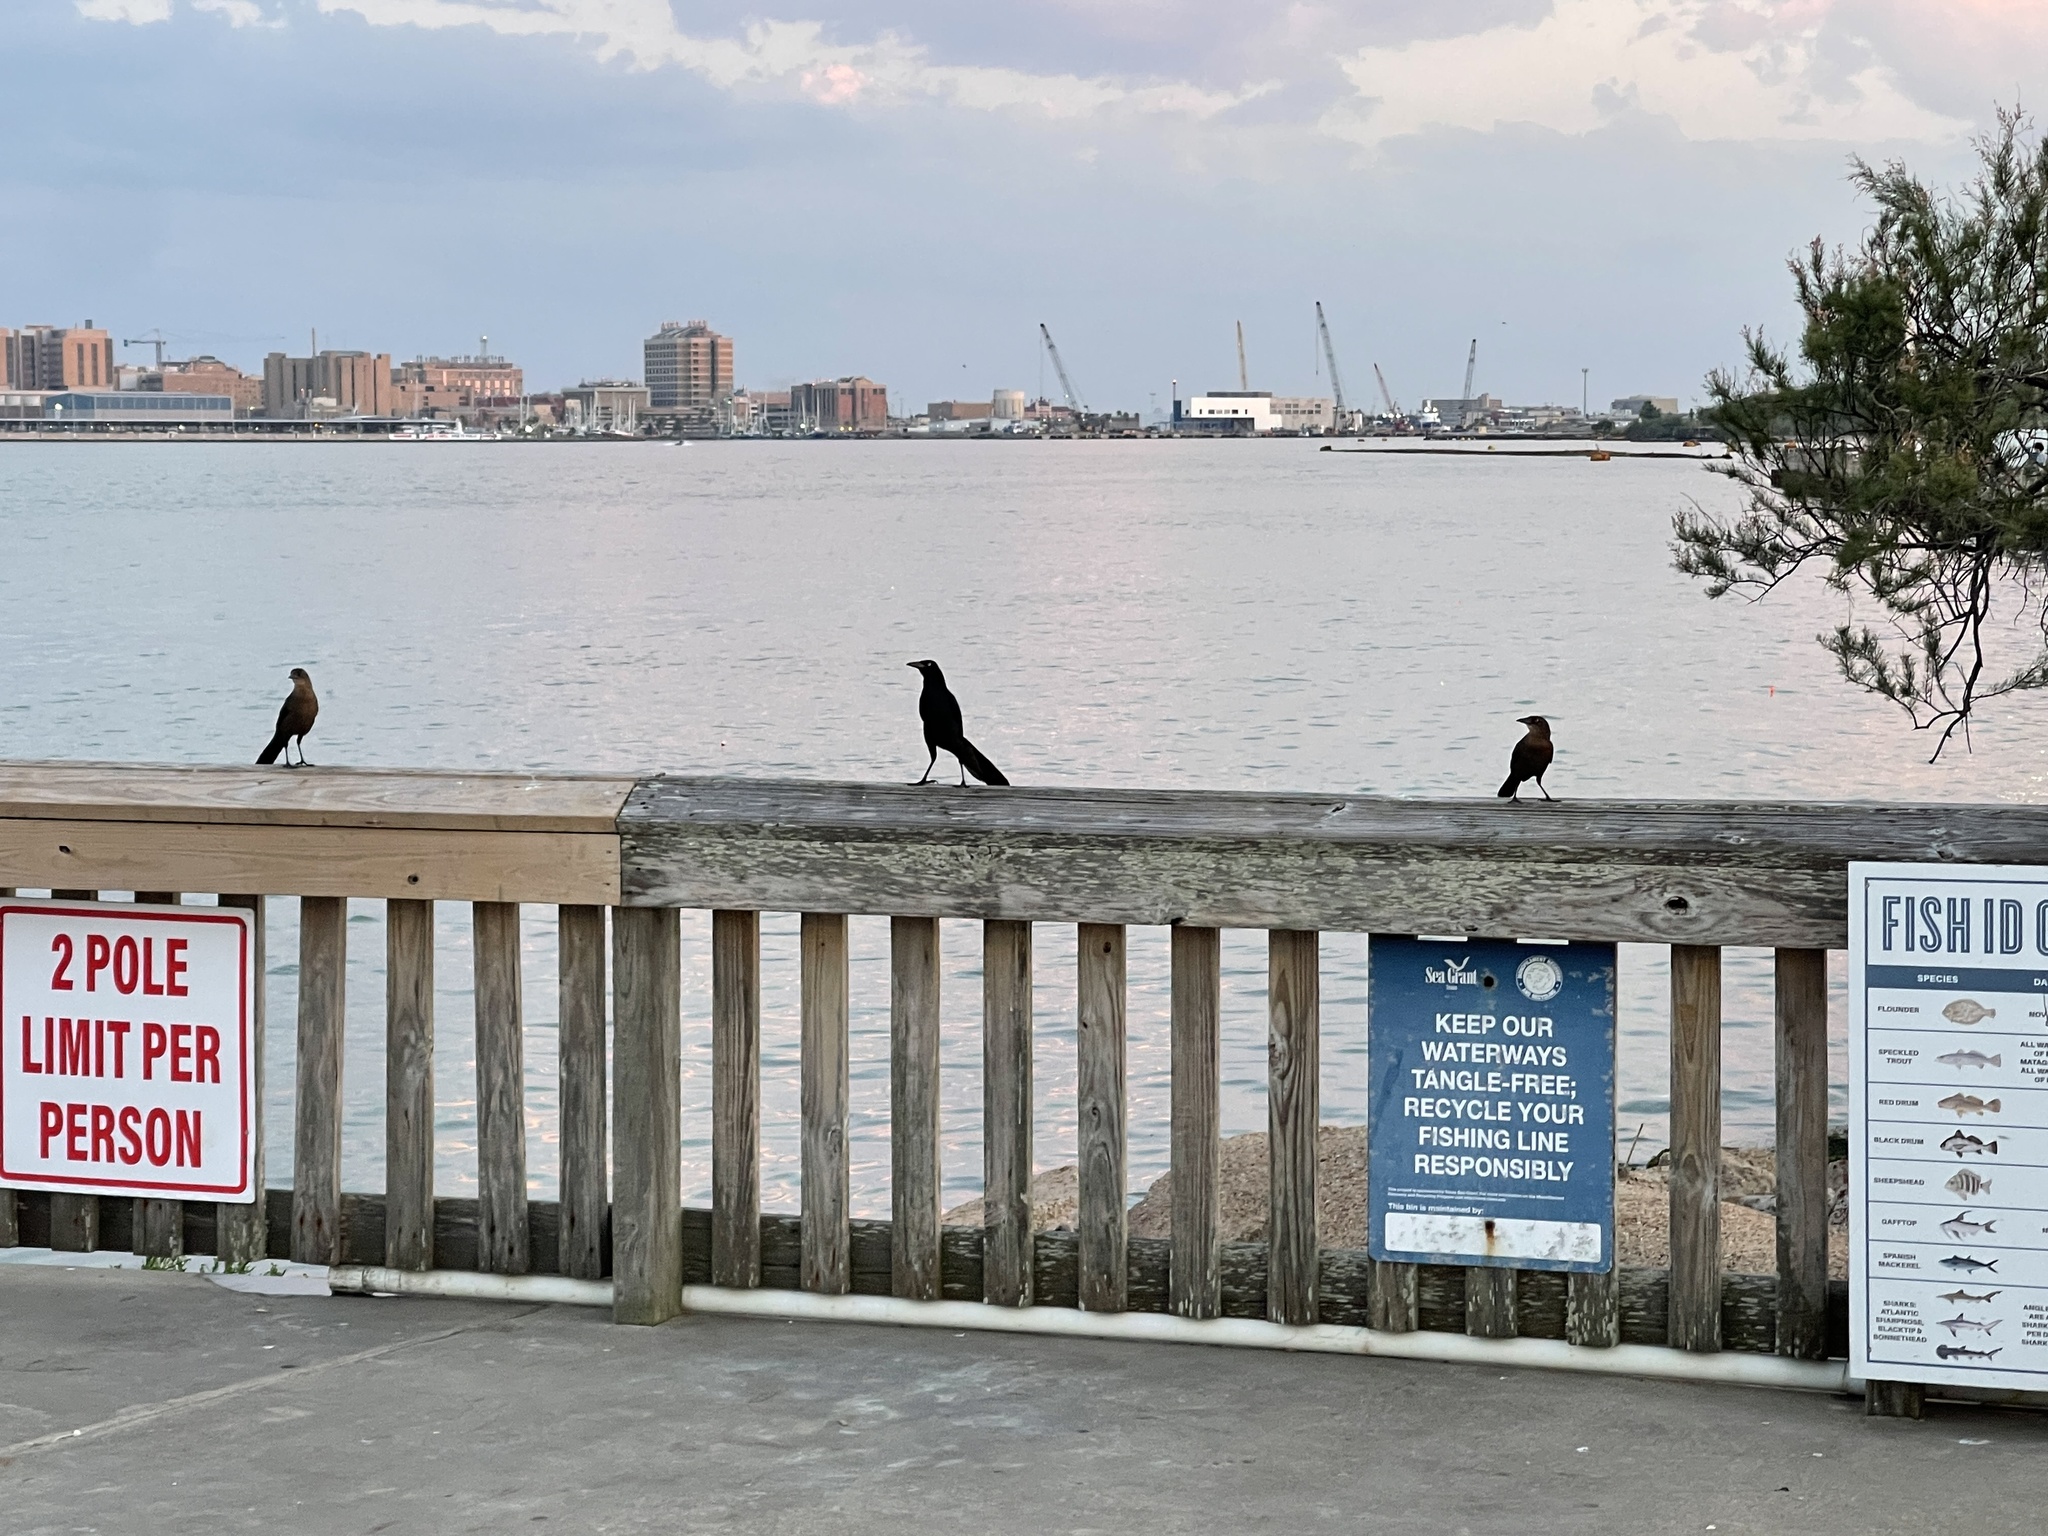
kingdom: Animalia
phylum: Chordata
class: Aves
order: Passeriformes
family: Icteridae
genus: Quiscalus
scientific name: Quiscalus mexicanus
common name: Great-tailed grackle
